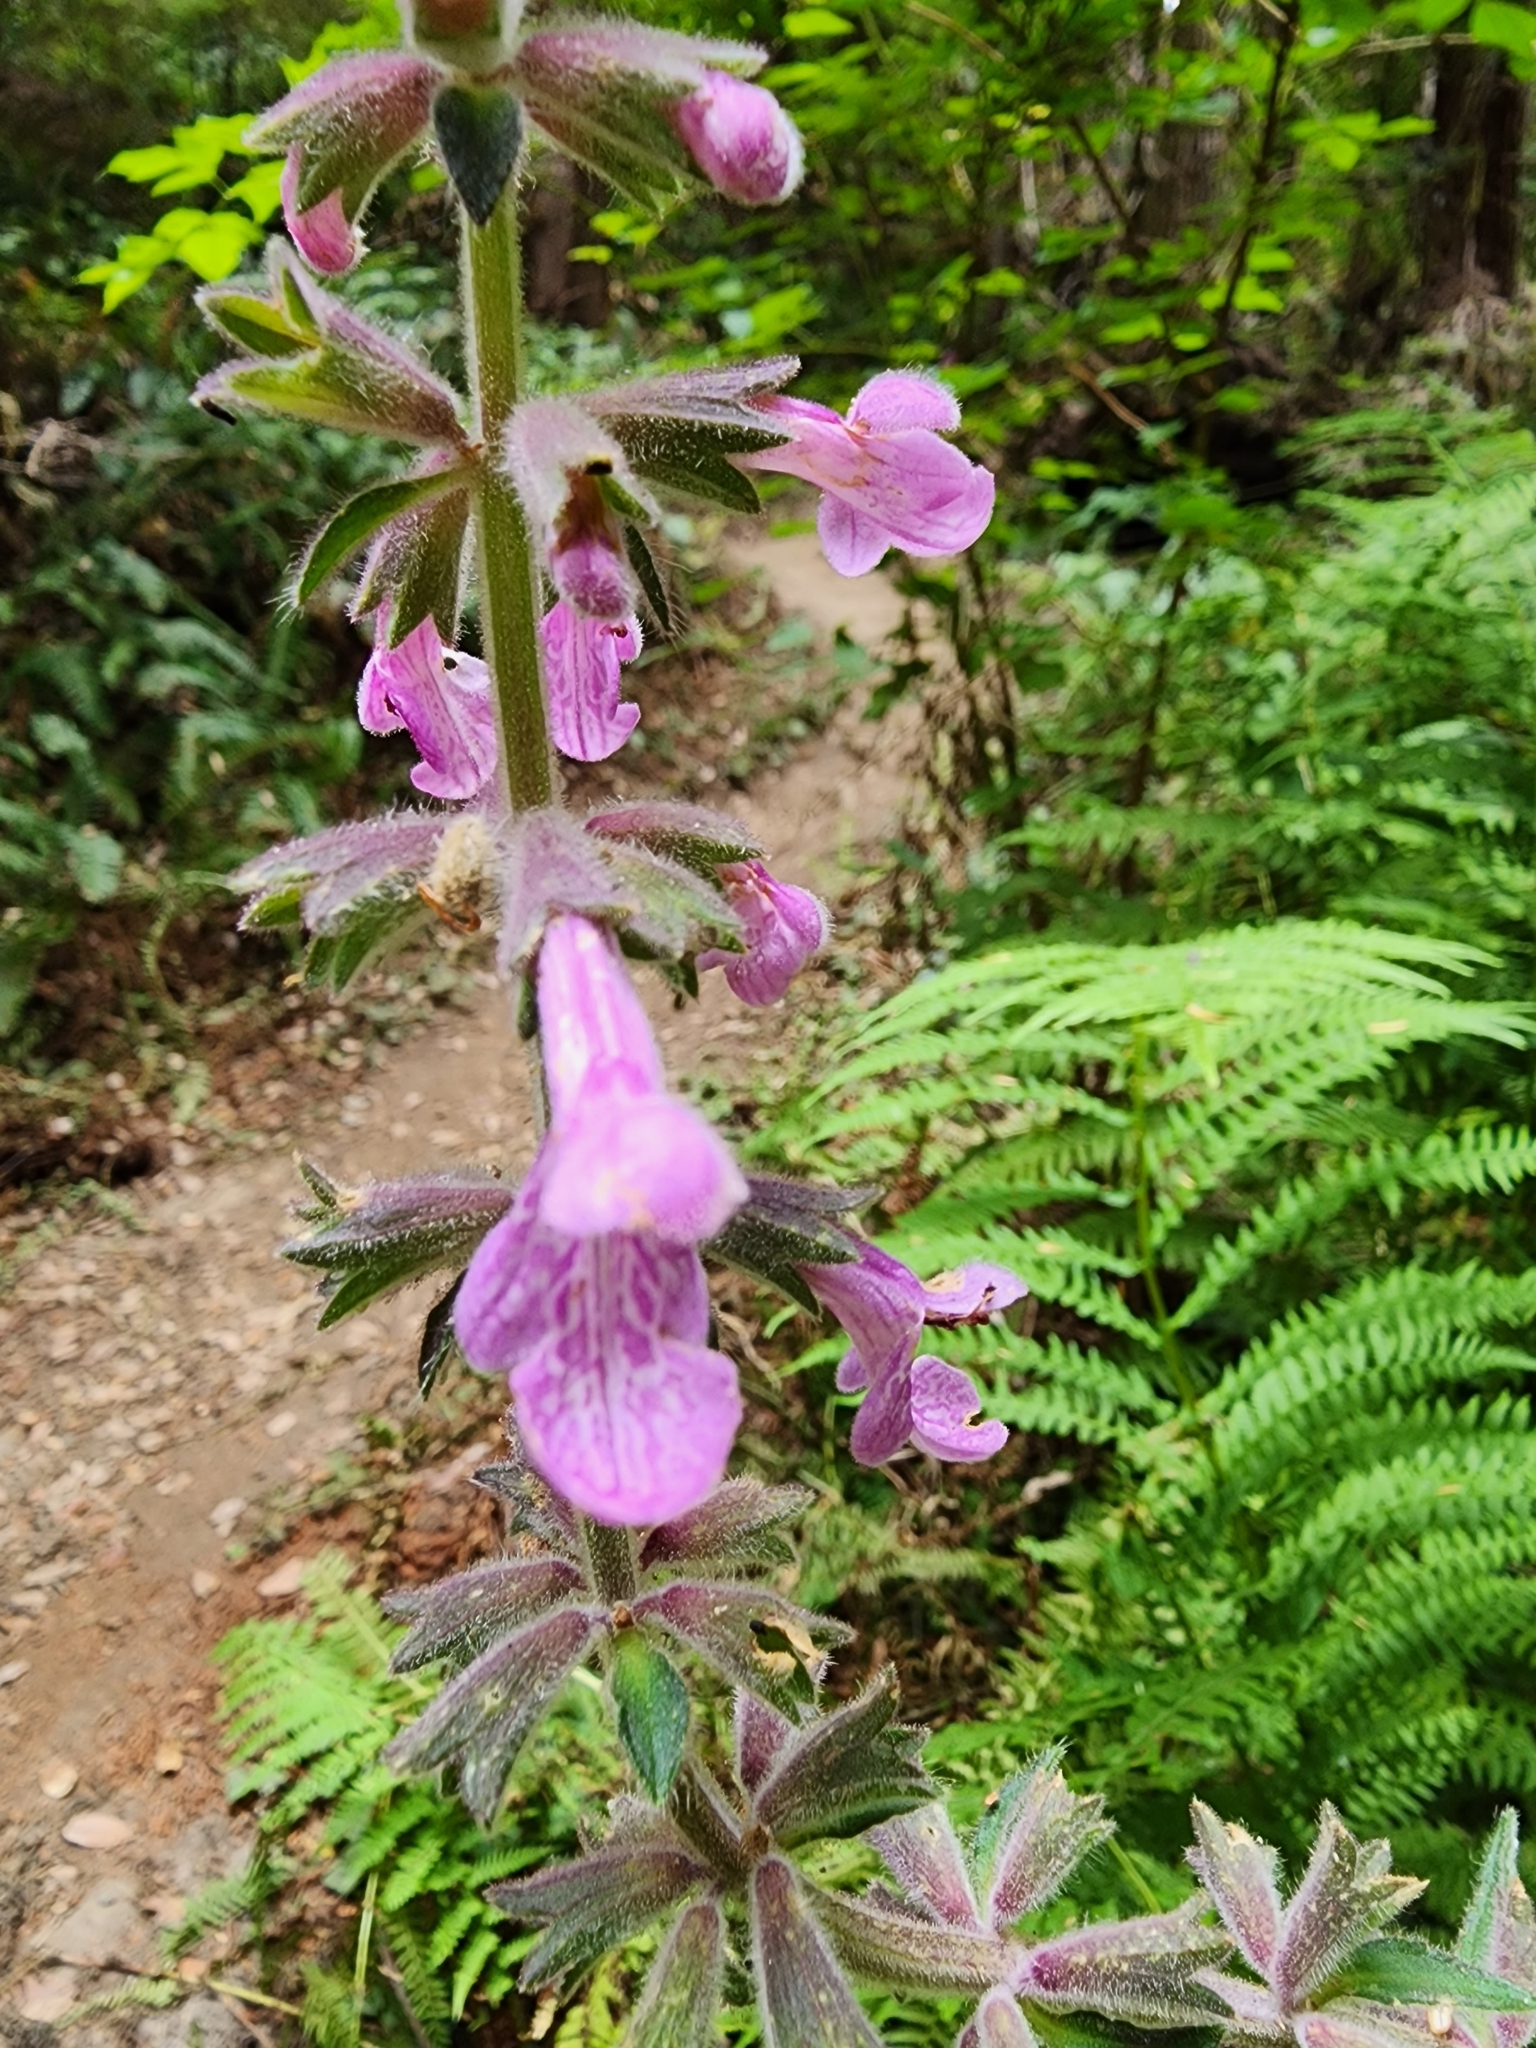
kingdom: Plantae
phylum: Tracheophyta
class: Magnoliopsida
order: Lamiales
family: Lamiaceae
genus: Stachys
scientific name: Stachys chamissonis
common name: Coastal hedge-nettle
